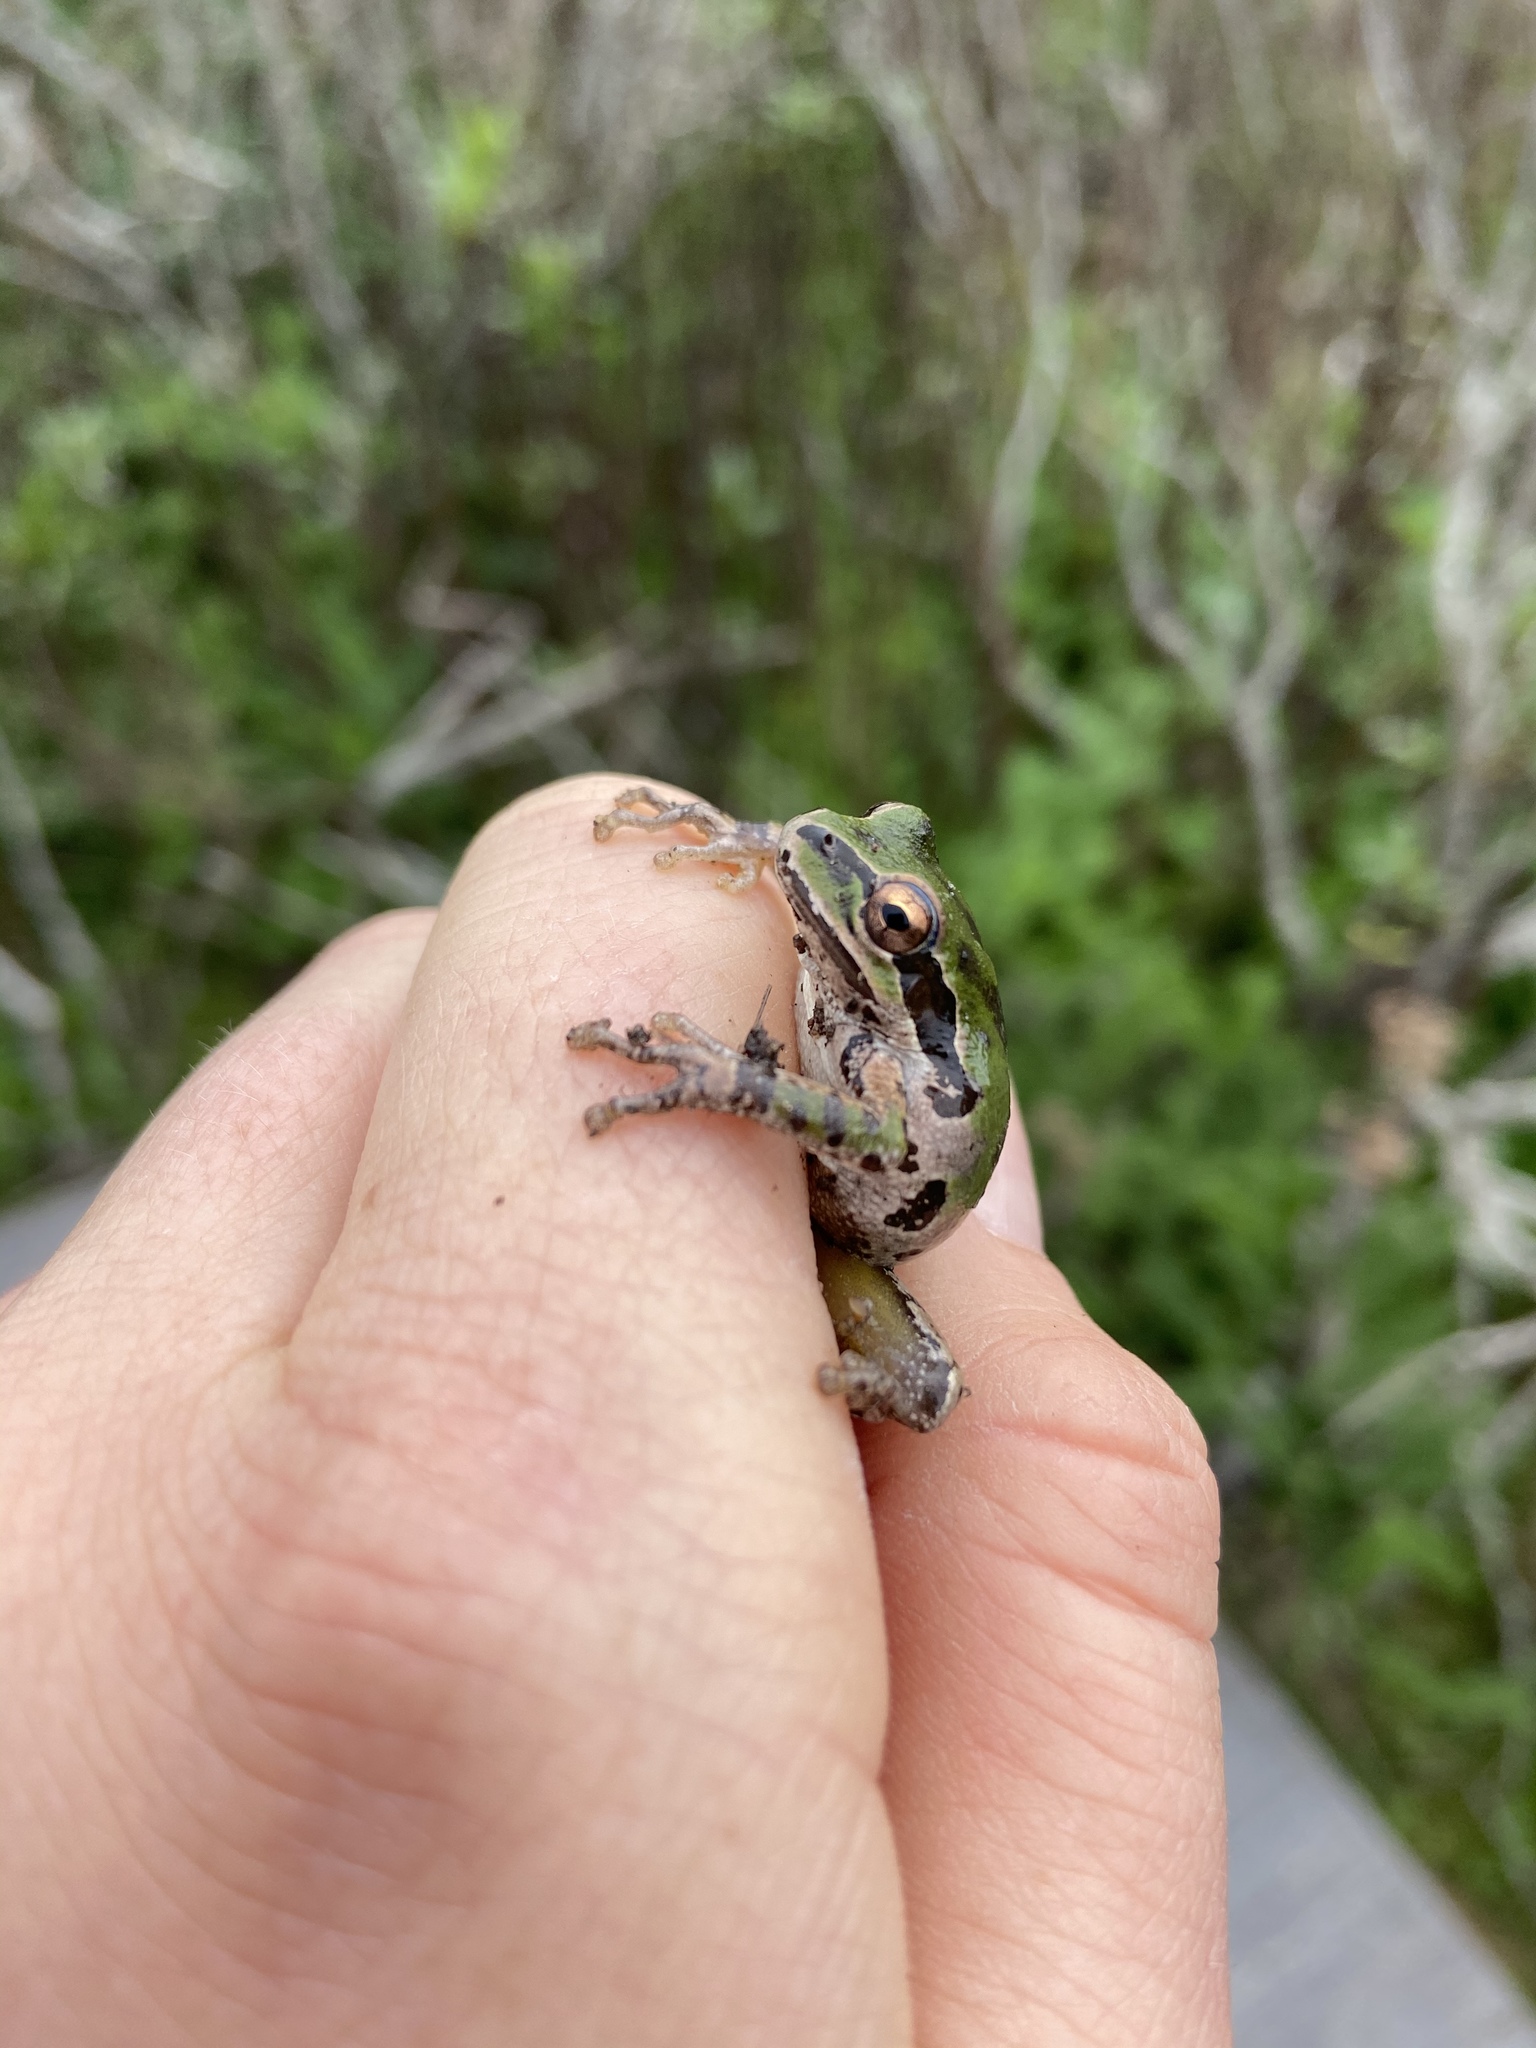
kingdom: Animalia
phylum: Chordata
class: Amphibia
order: Anura
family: Hylidae
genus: Pseudacris
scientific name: Pseudacris regilla
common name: Pacific chorus frog
